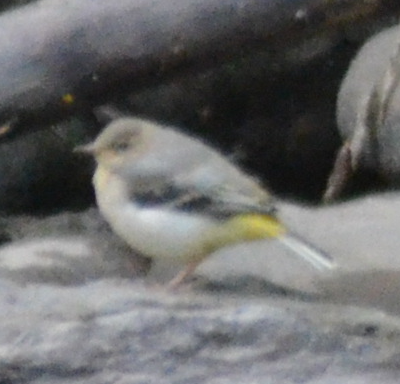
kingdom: Animalia
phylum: Chordata
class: Aves
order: Passeriformes
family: Motacillidae
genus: Motacilla
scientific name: Motacilla cinerea
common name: Grey wagtail
